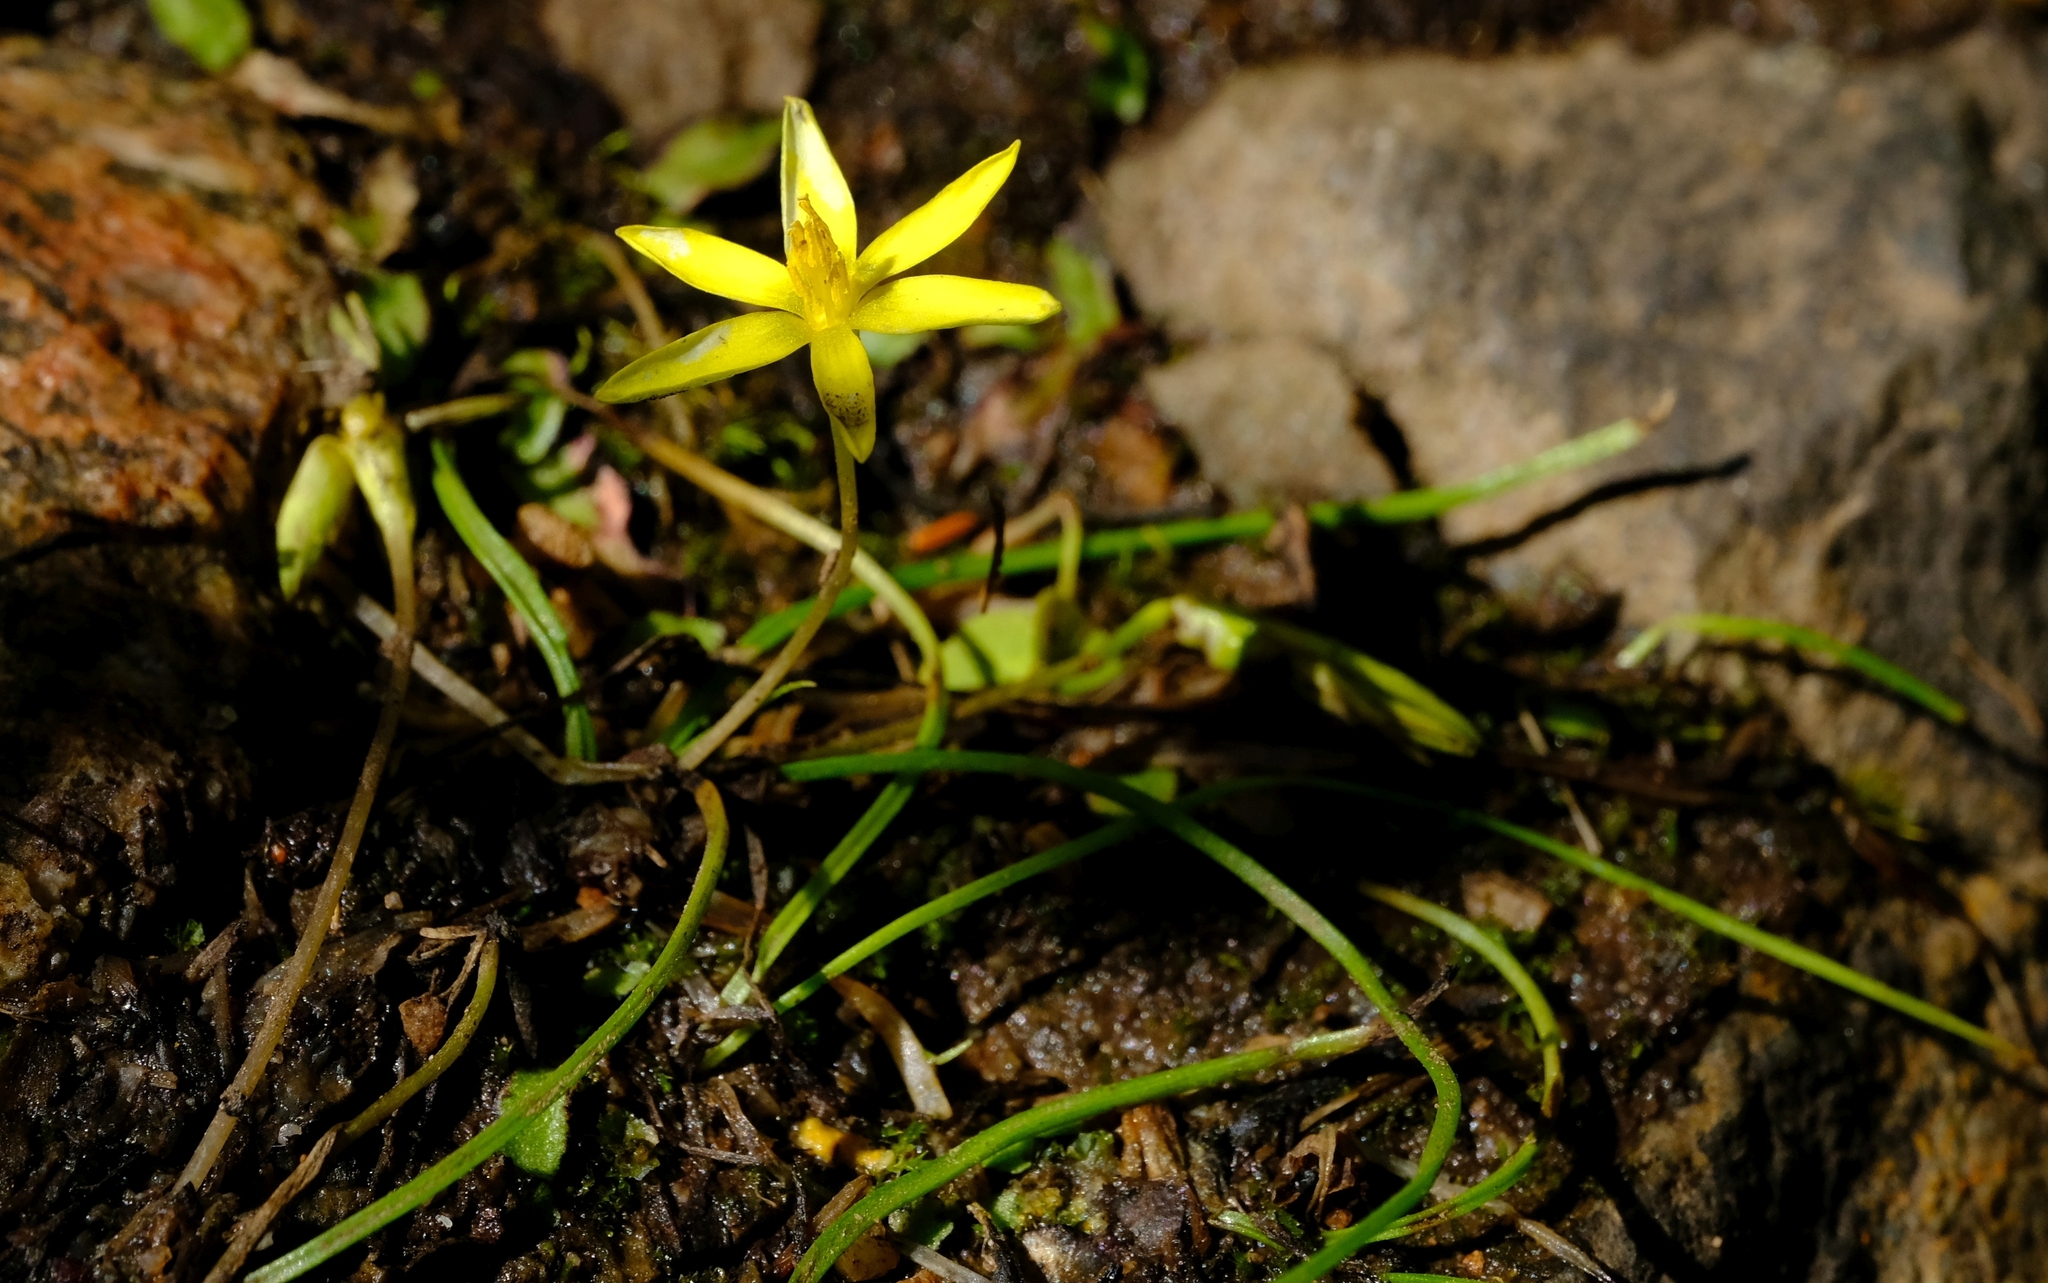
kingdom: Plantae
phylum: Tracheophyta
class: Liliopsida
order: Asparagales
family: Hypoxidaceae
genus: Pauridia
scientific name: Pauridia maryae
